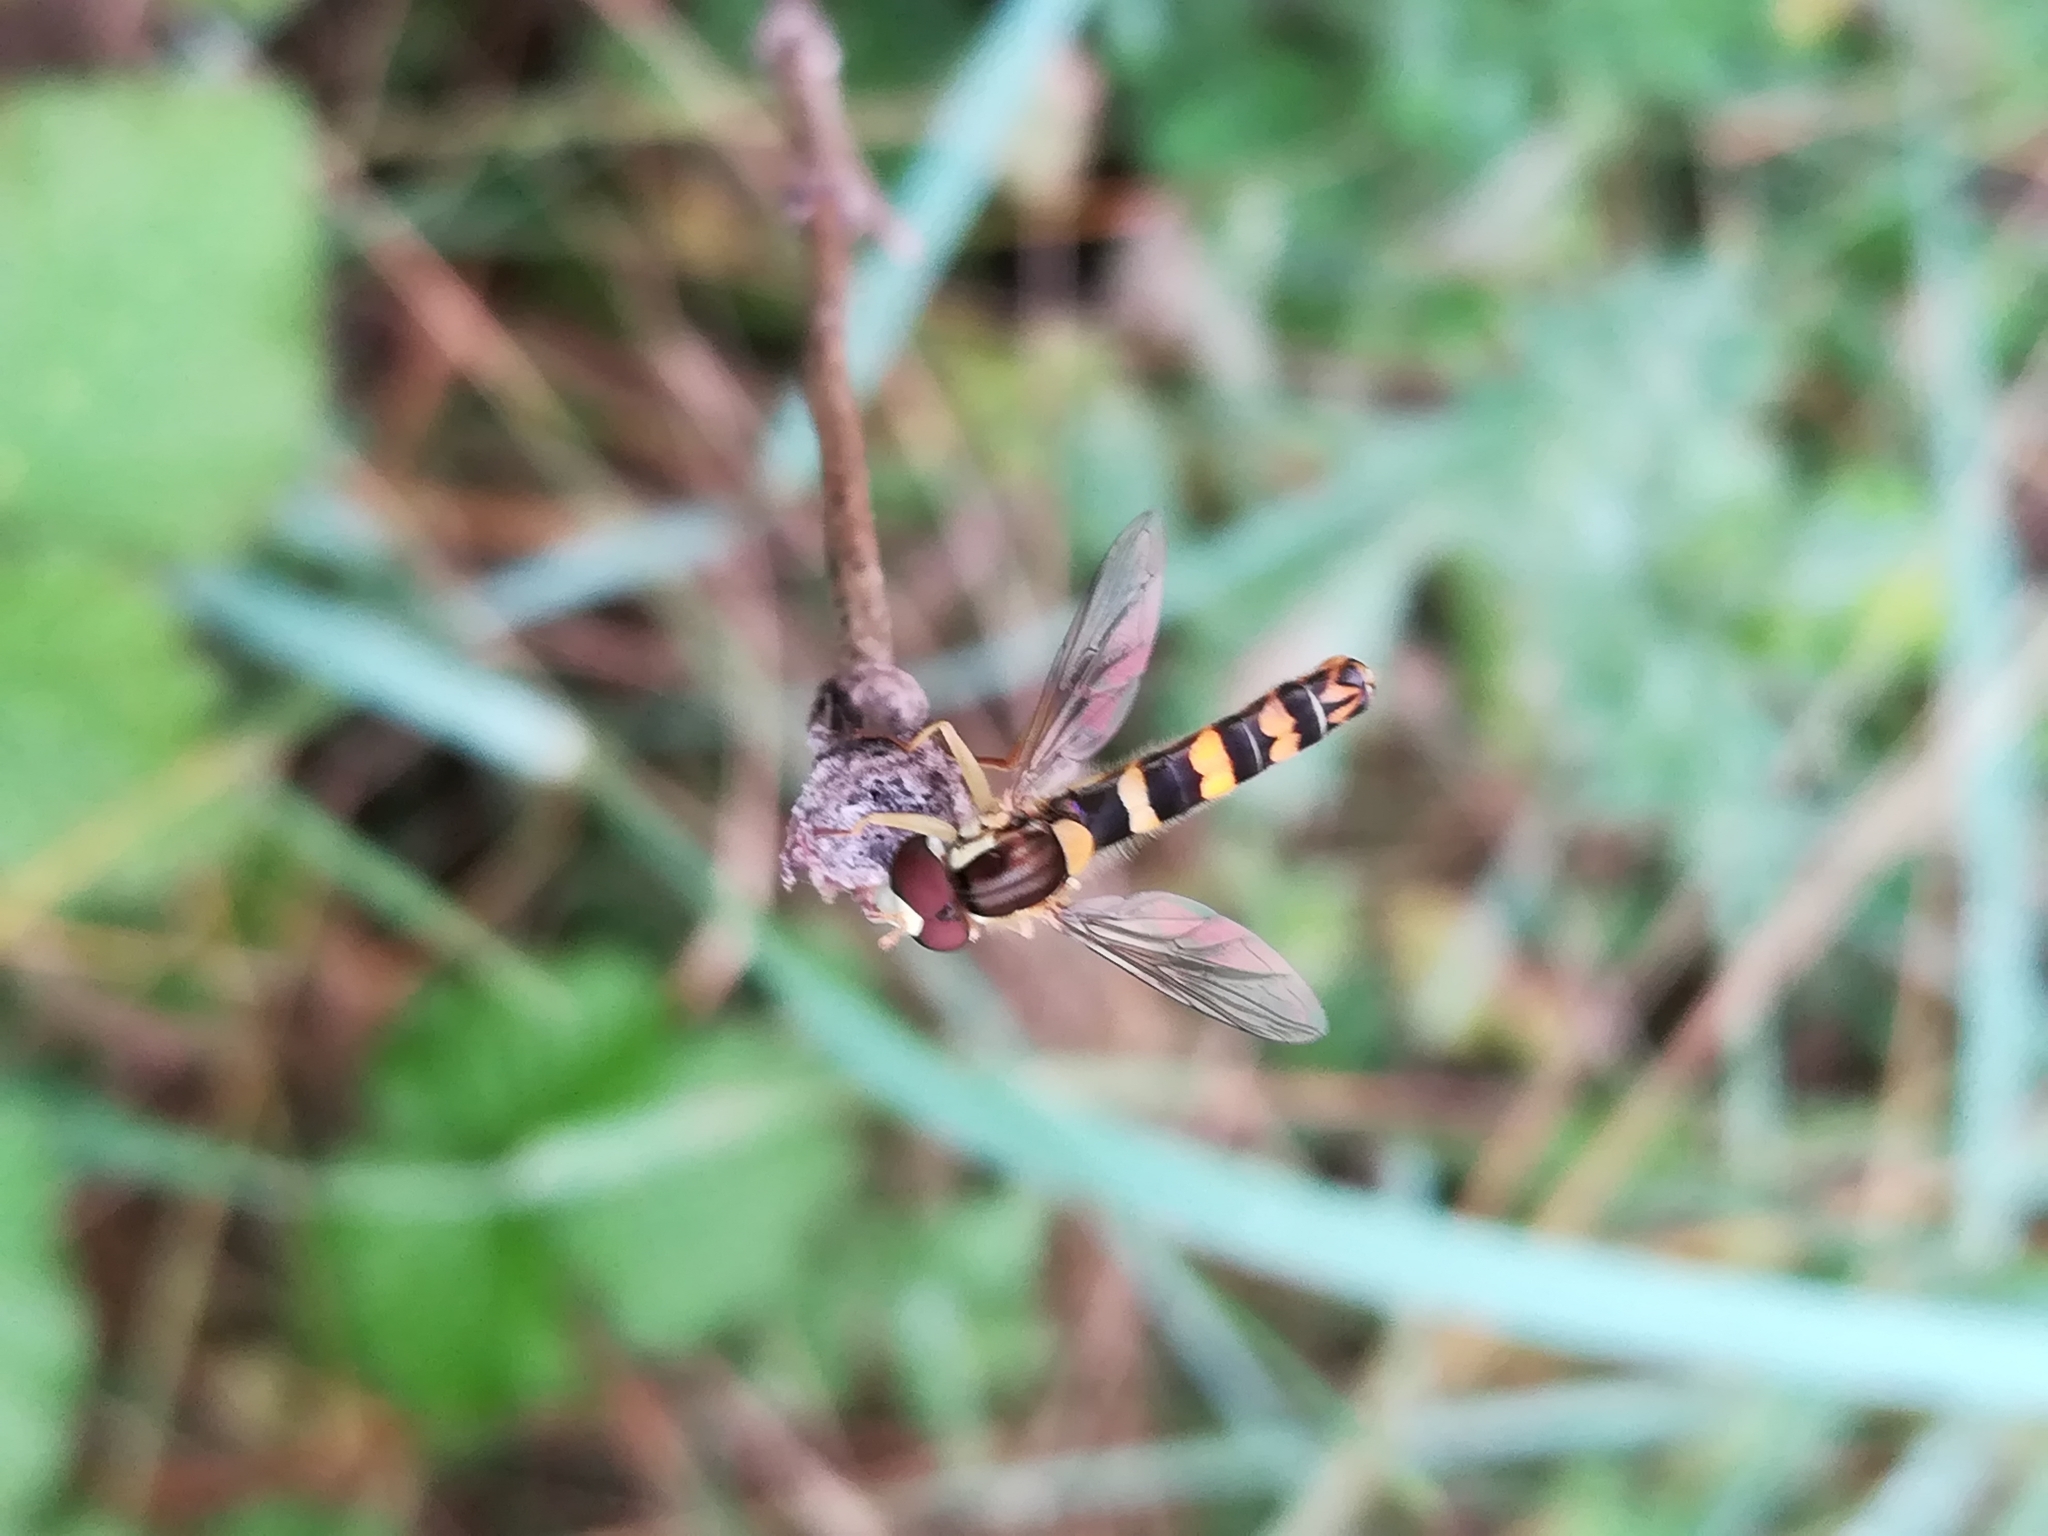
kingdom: Animalia
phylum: Arthropoda
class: Insecta
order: Diptera
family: Syrphidae
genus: Sphaerophoria
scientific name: Sphaerophoria scripta
